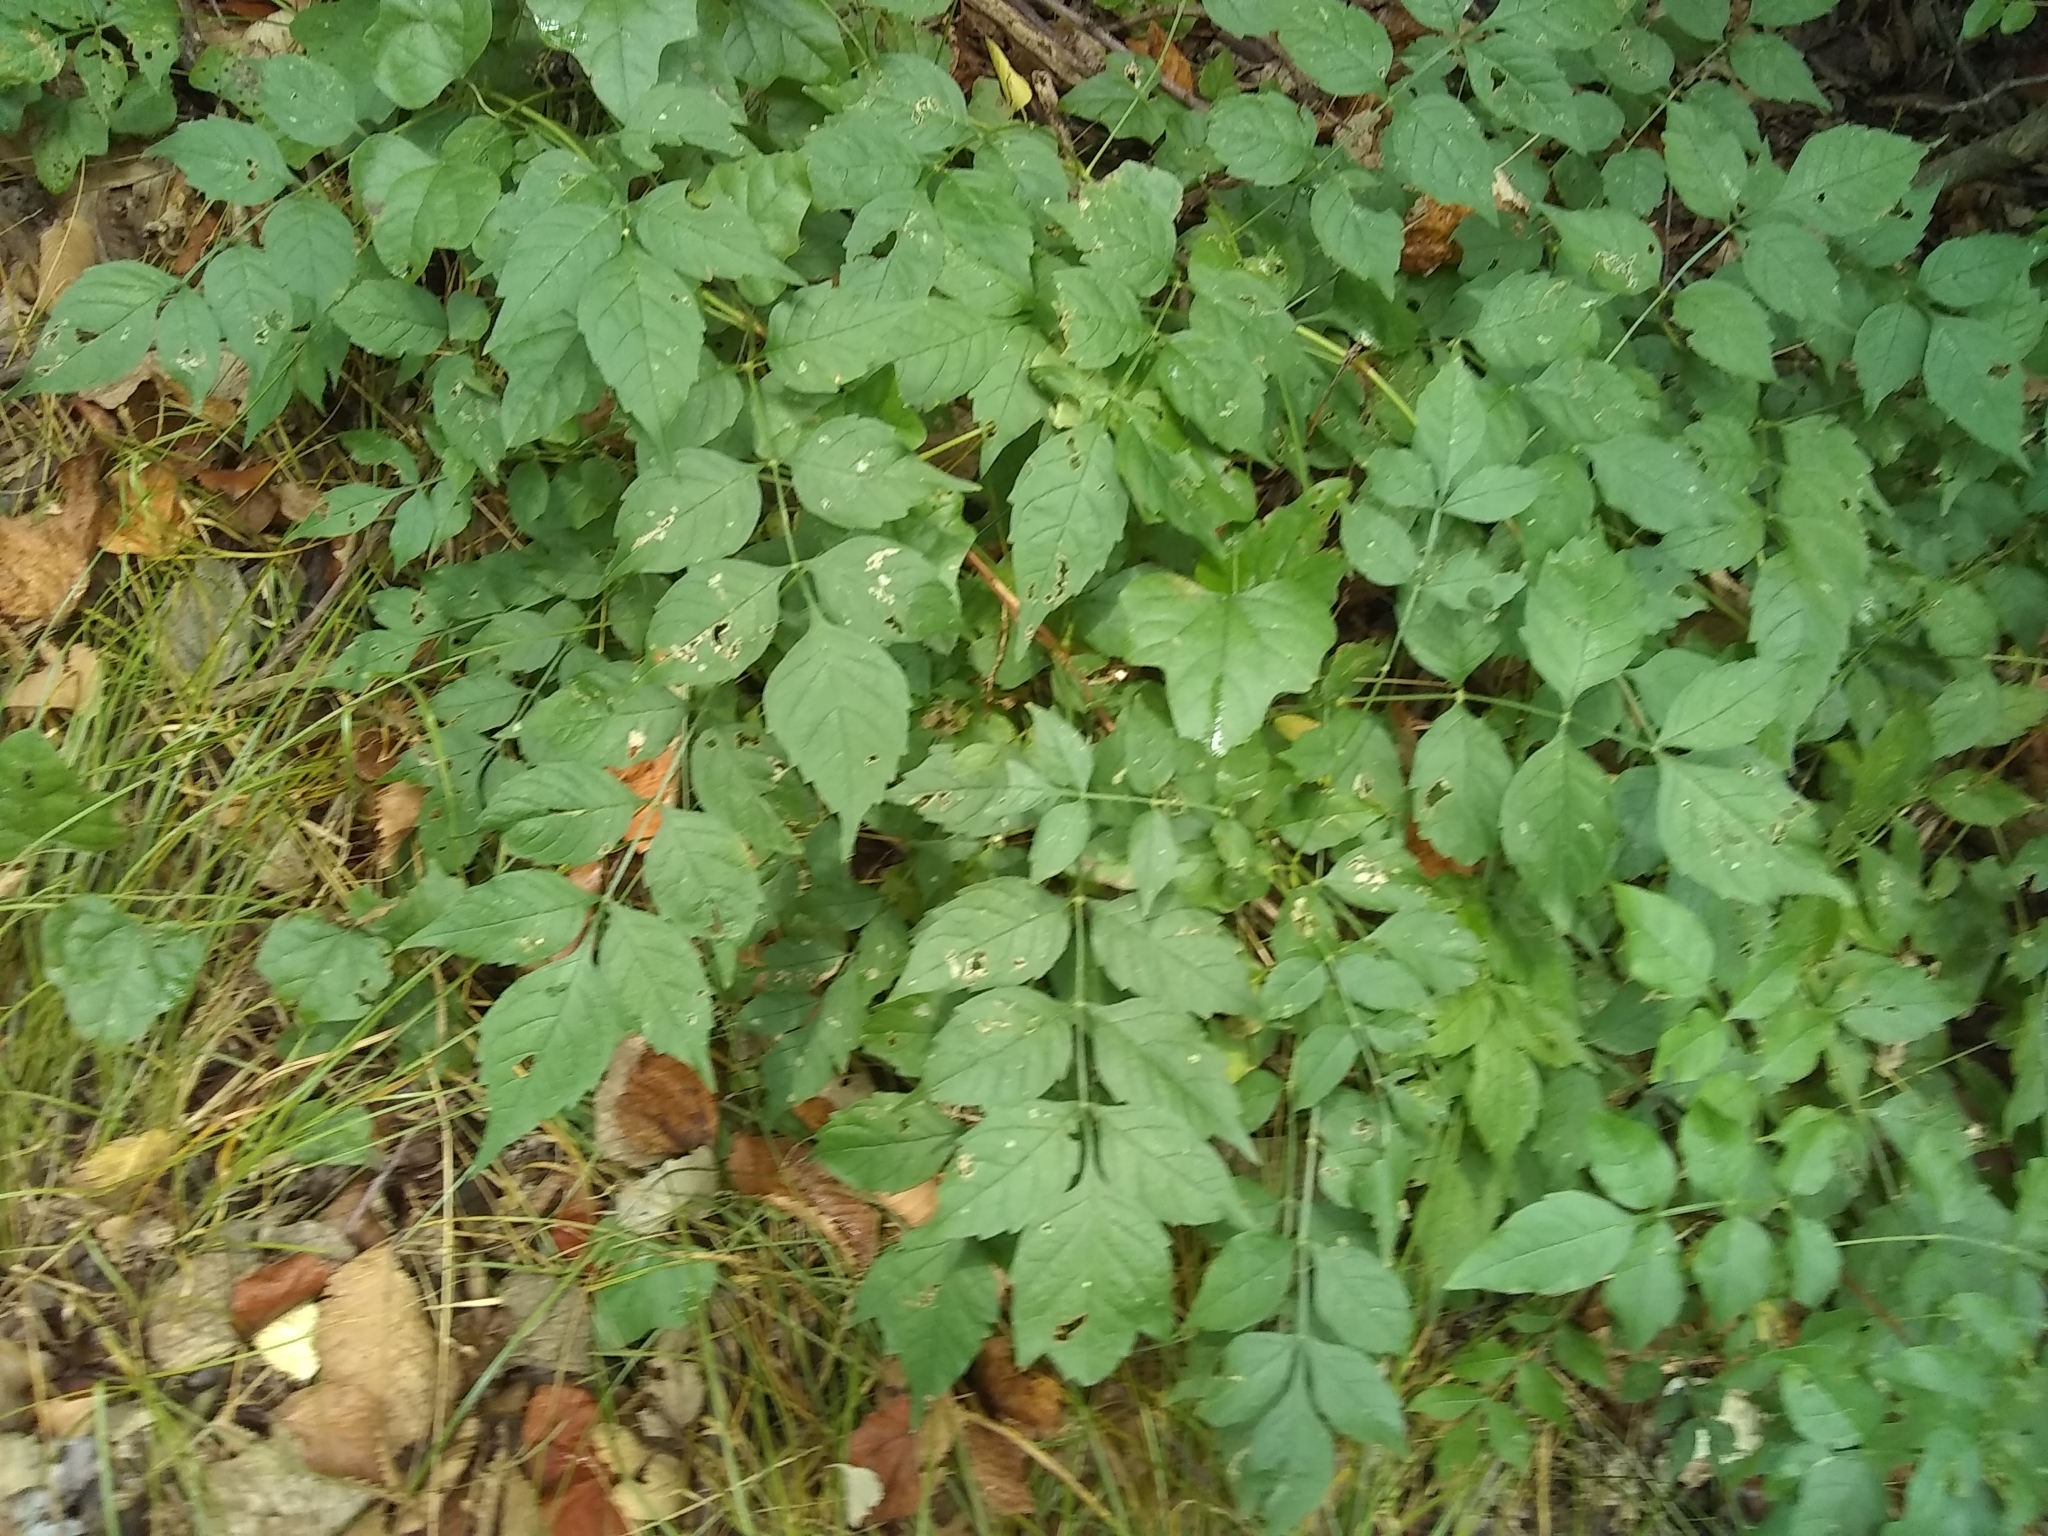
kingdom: Plantae
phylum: Tracheophyta
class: Magnoliopsida
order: Lamiales
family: Bignoniaceae
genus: Campsis
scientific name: Campsis radicans
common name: Trumpet-creeper
